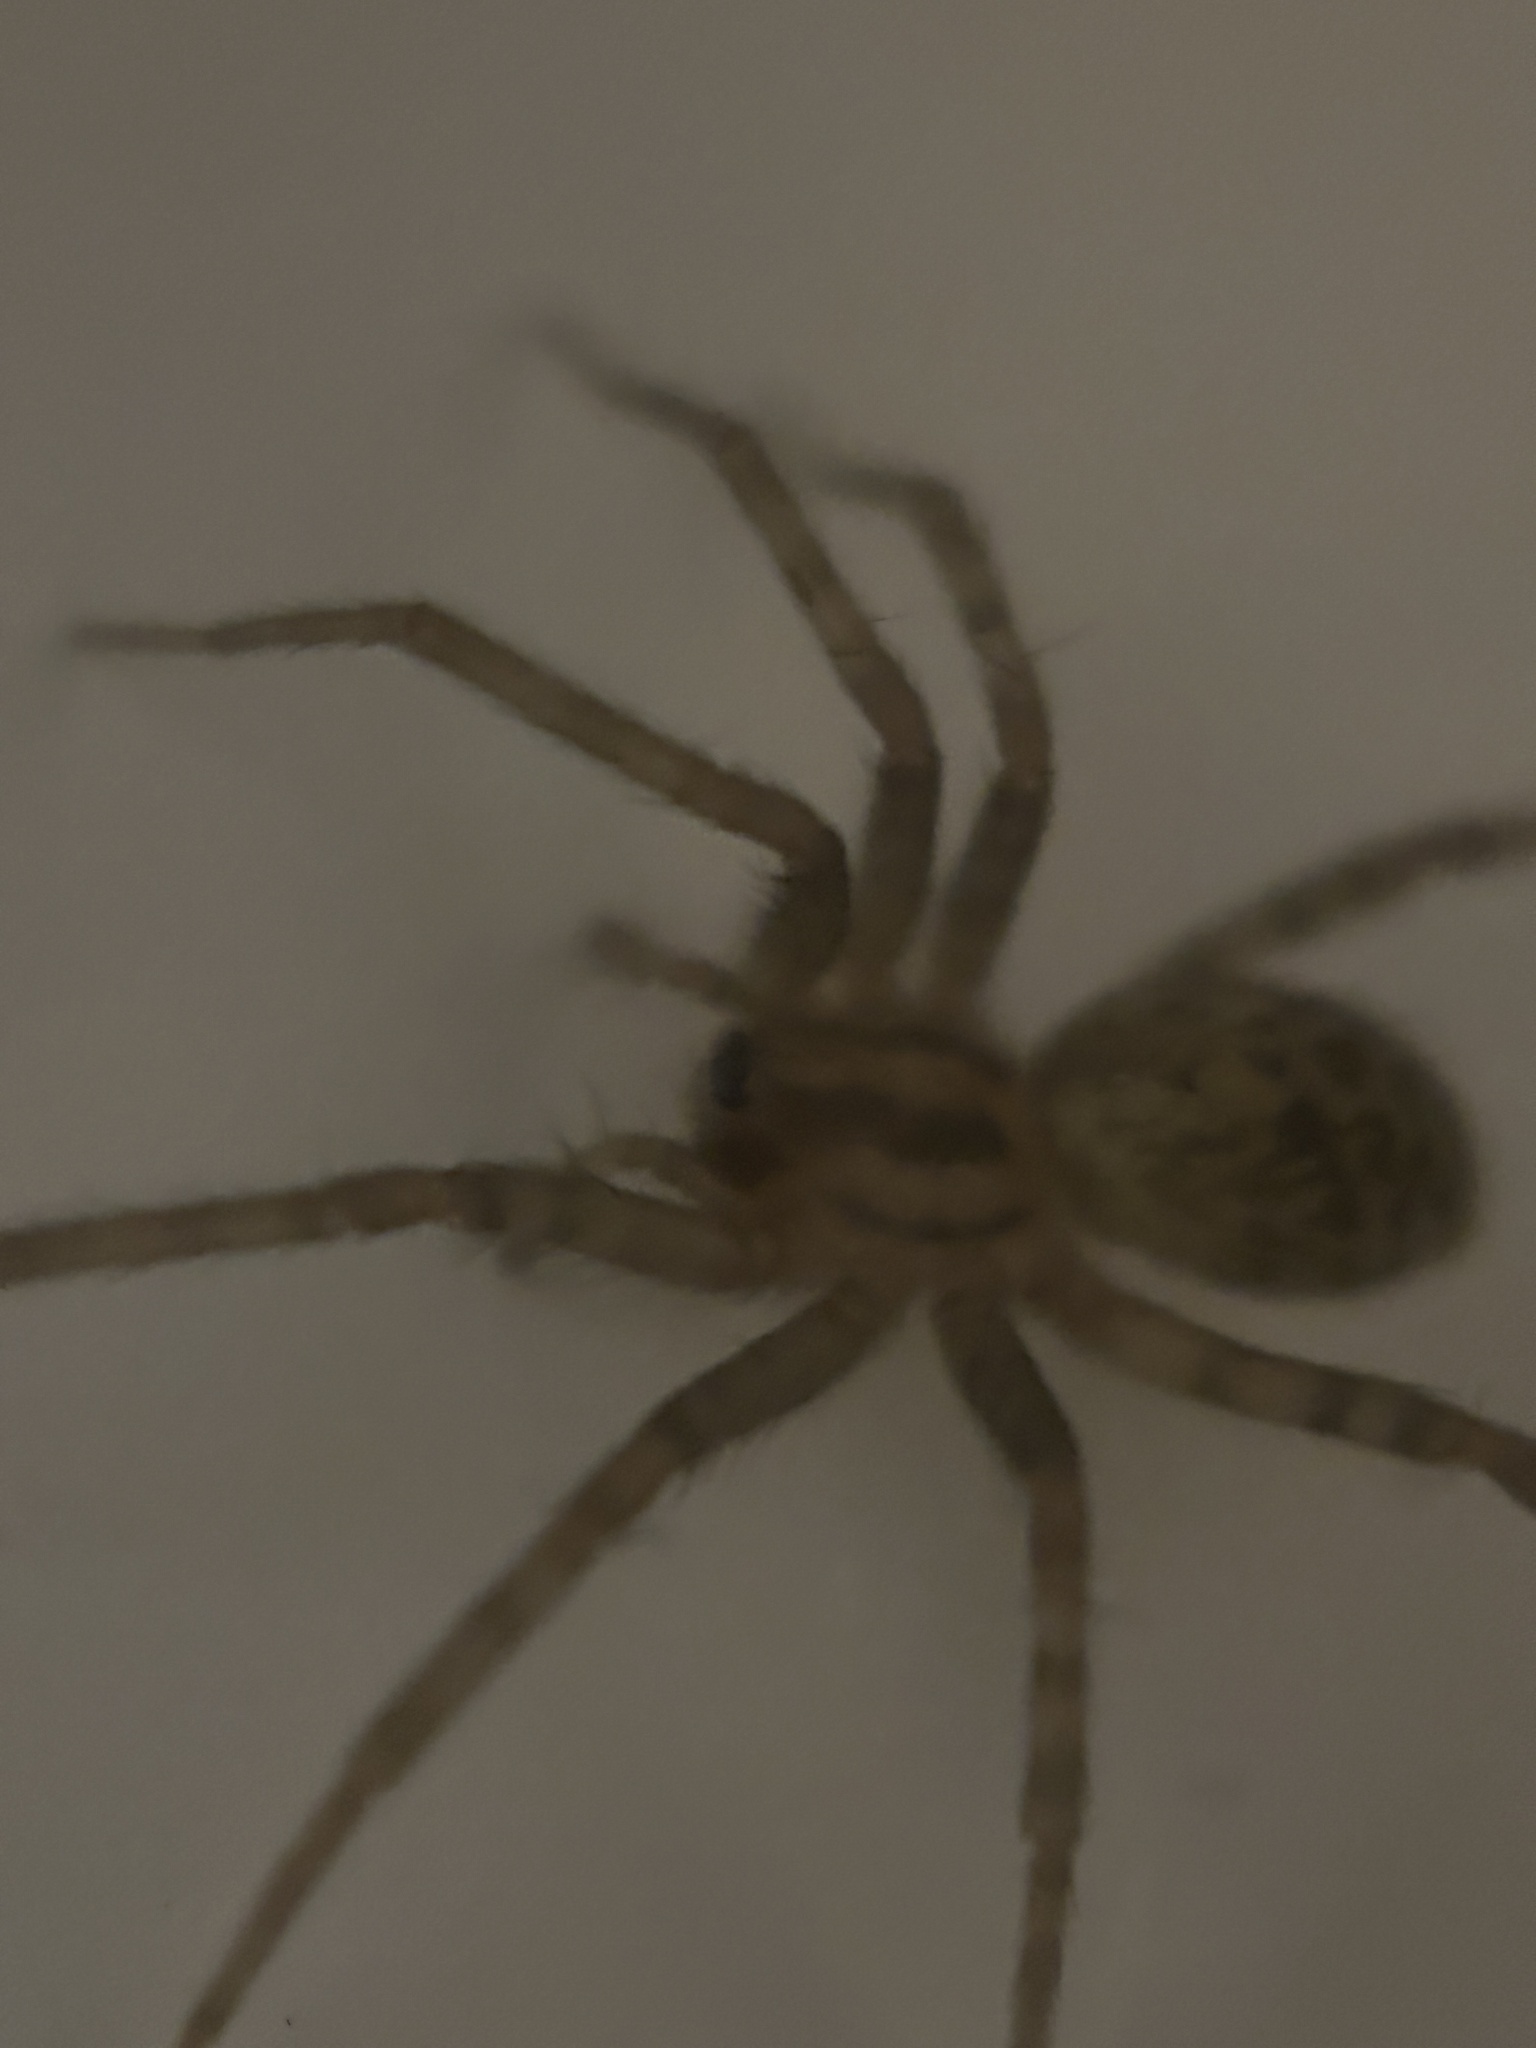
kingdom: Animalia
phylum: Arthropoda
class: Arachnida
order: Araneae
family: Agelenidae
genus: Tegenaria
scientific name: Tegenaria domestica
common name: Barn funnel weaver
